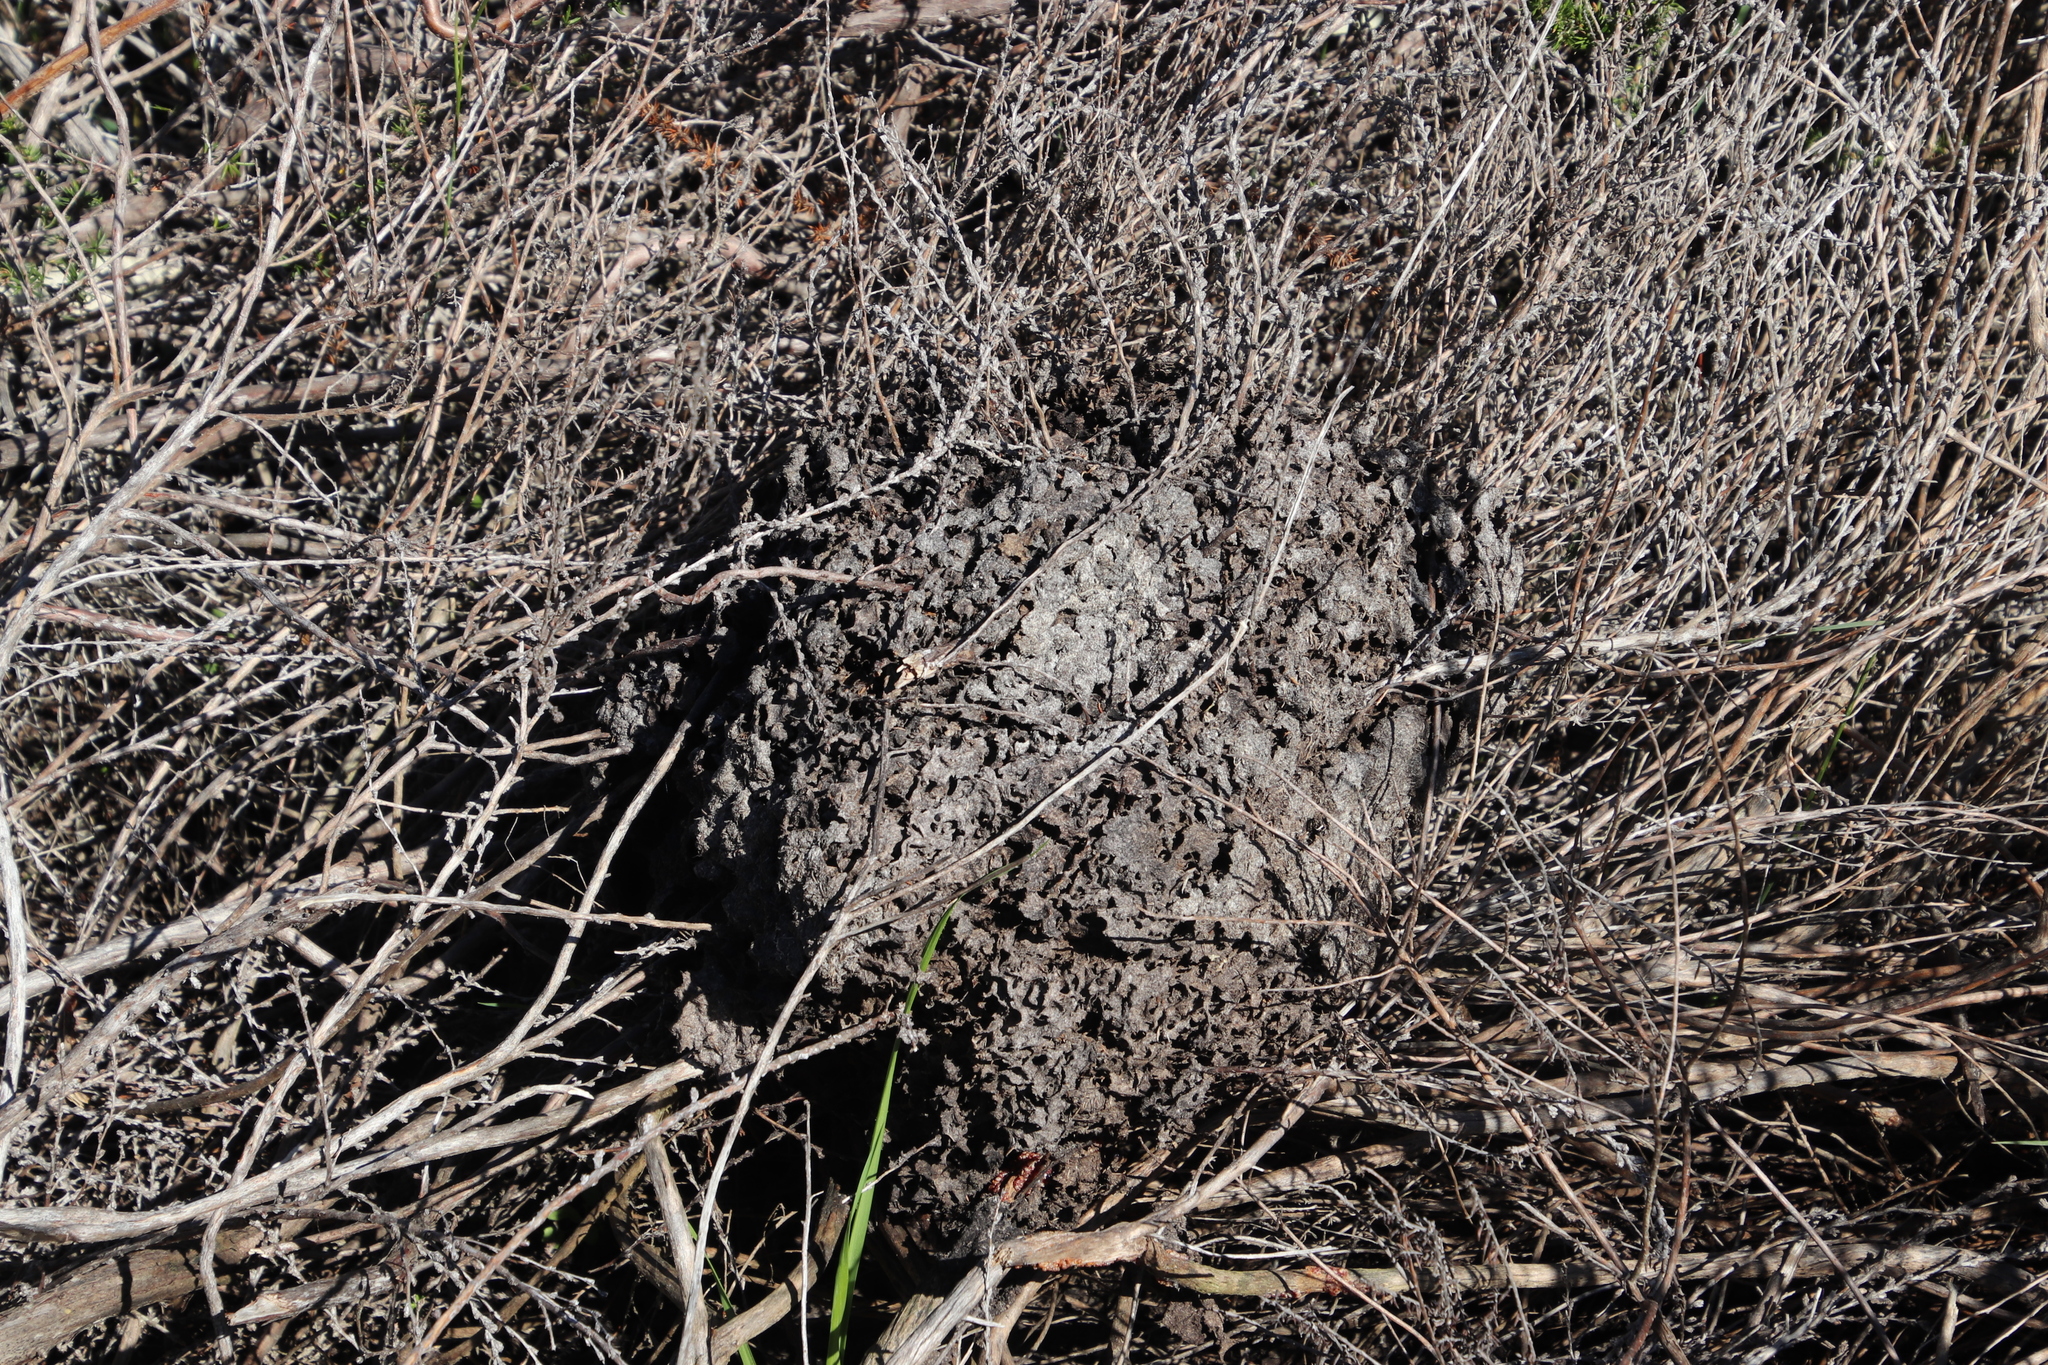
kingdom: Animalia
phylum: Arthropoda
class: Insecta
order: Hymenoptera
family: Formicidae
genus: Crematogaster
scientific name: Crematogaster peringueyi
